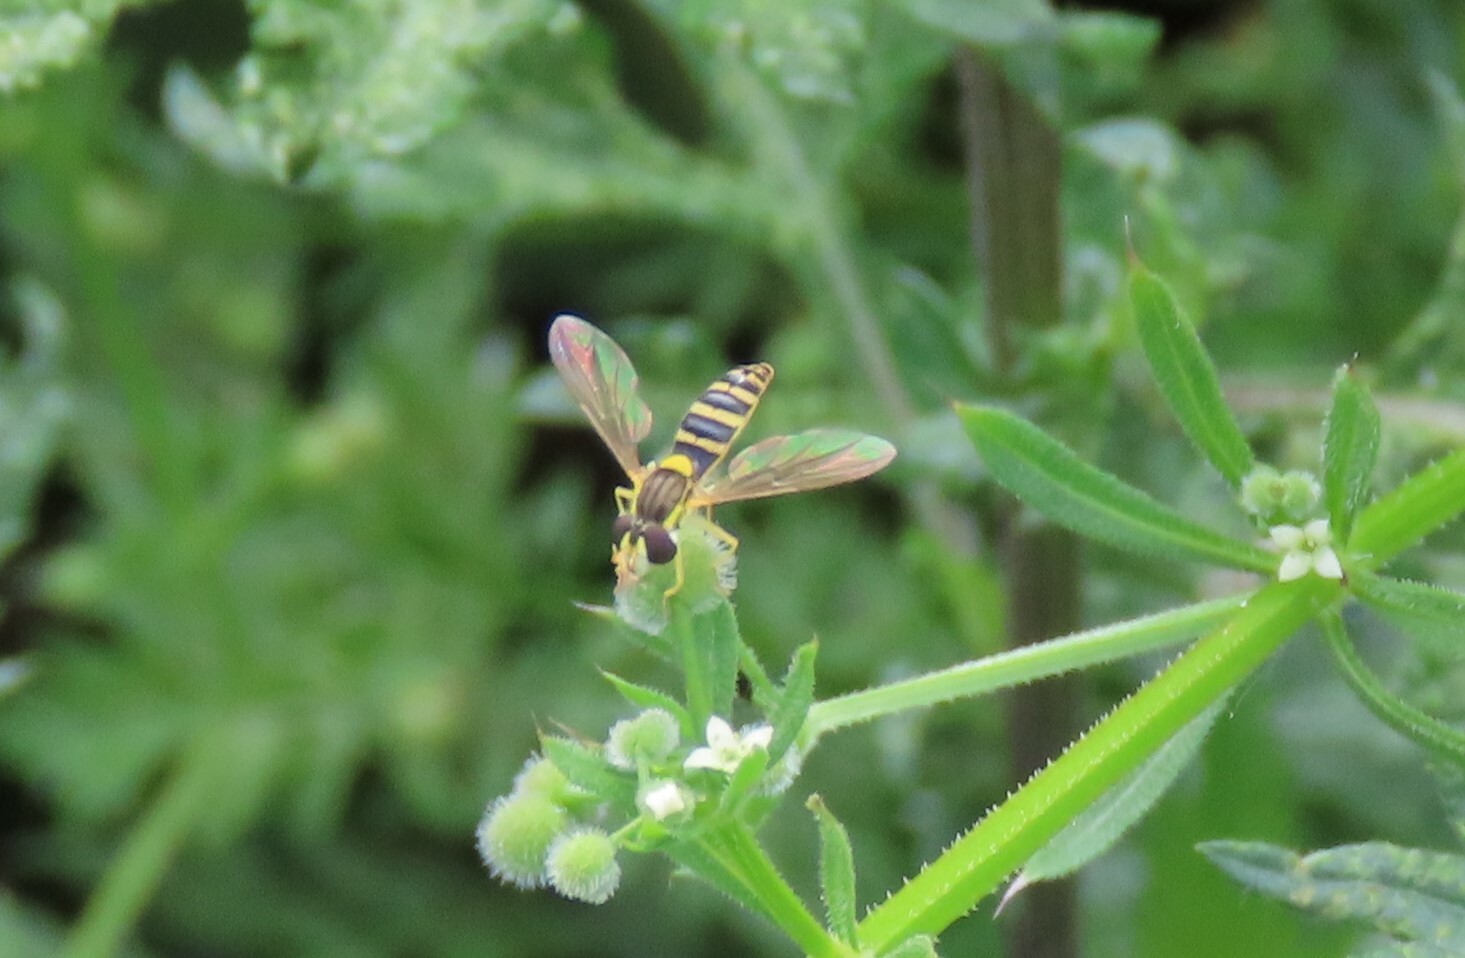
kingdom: Animalia
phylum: Arthropoda
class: Insecta
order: Diptera
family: Syrphidae
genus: Sphaerophoria
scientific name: Sphaerophoria
